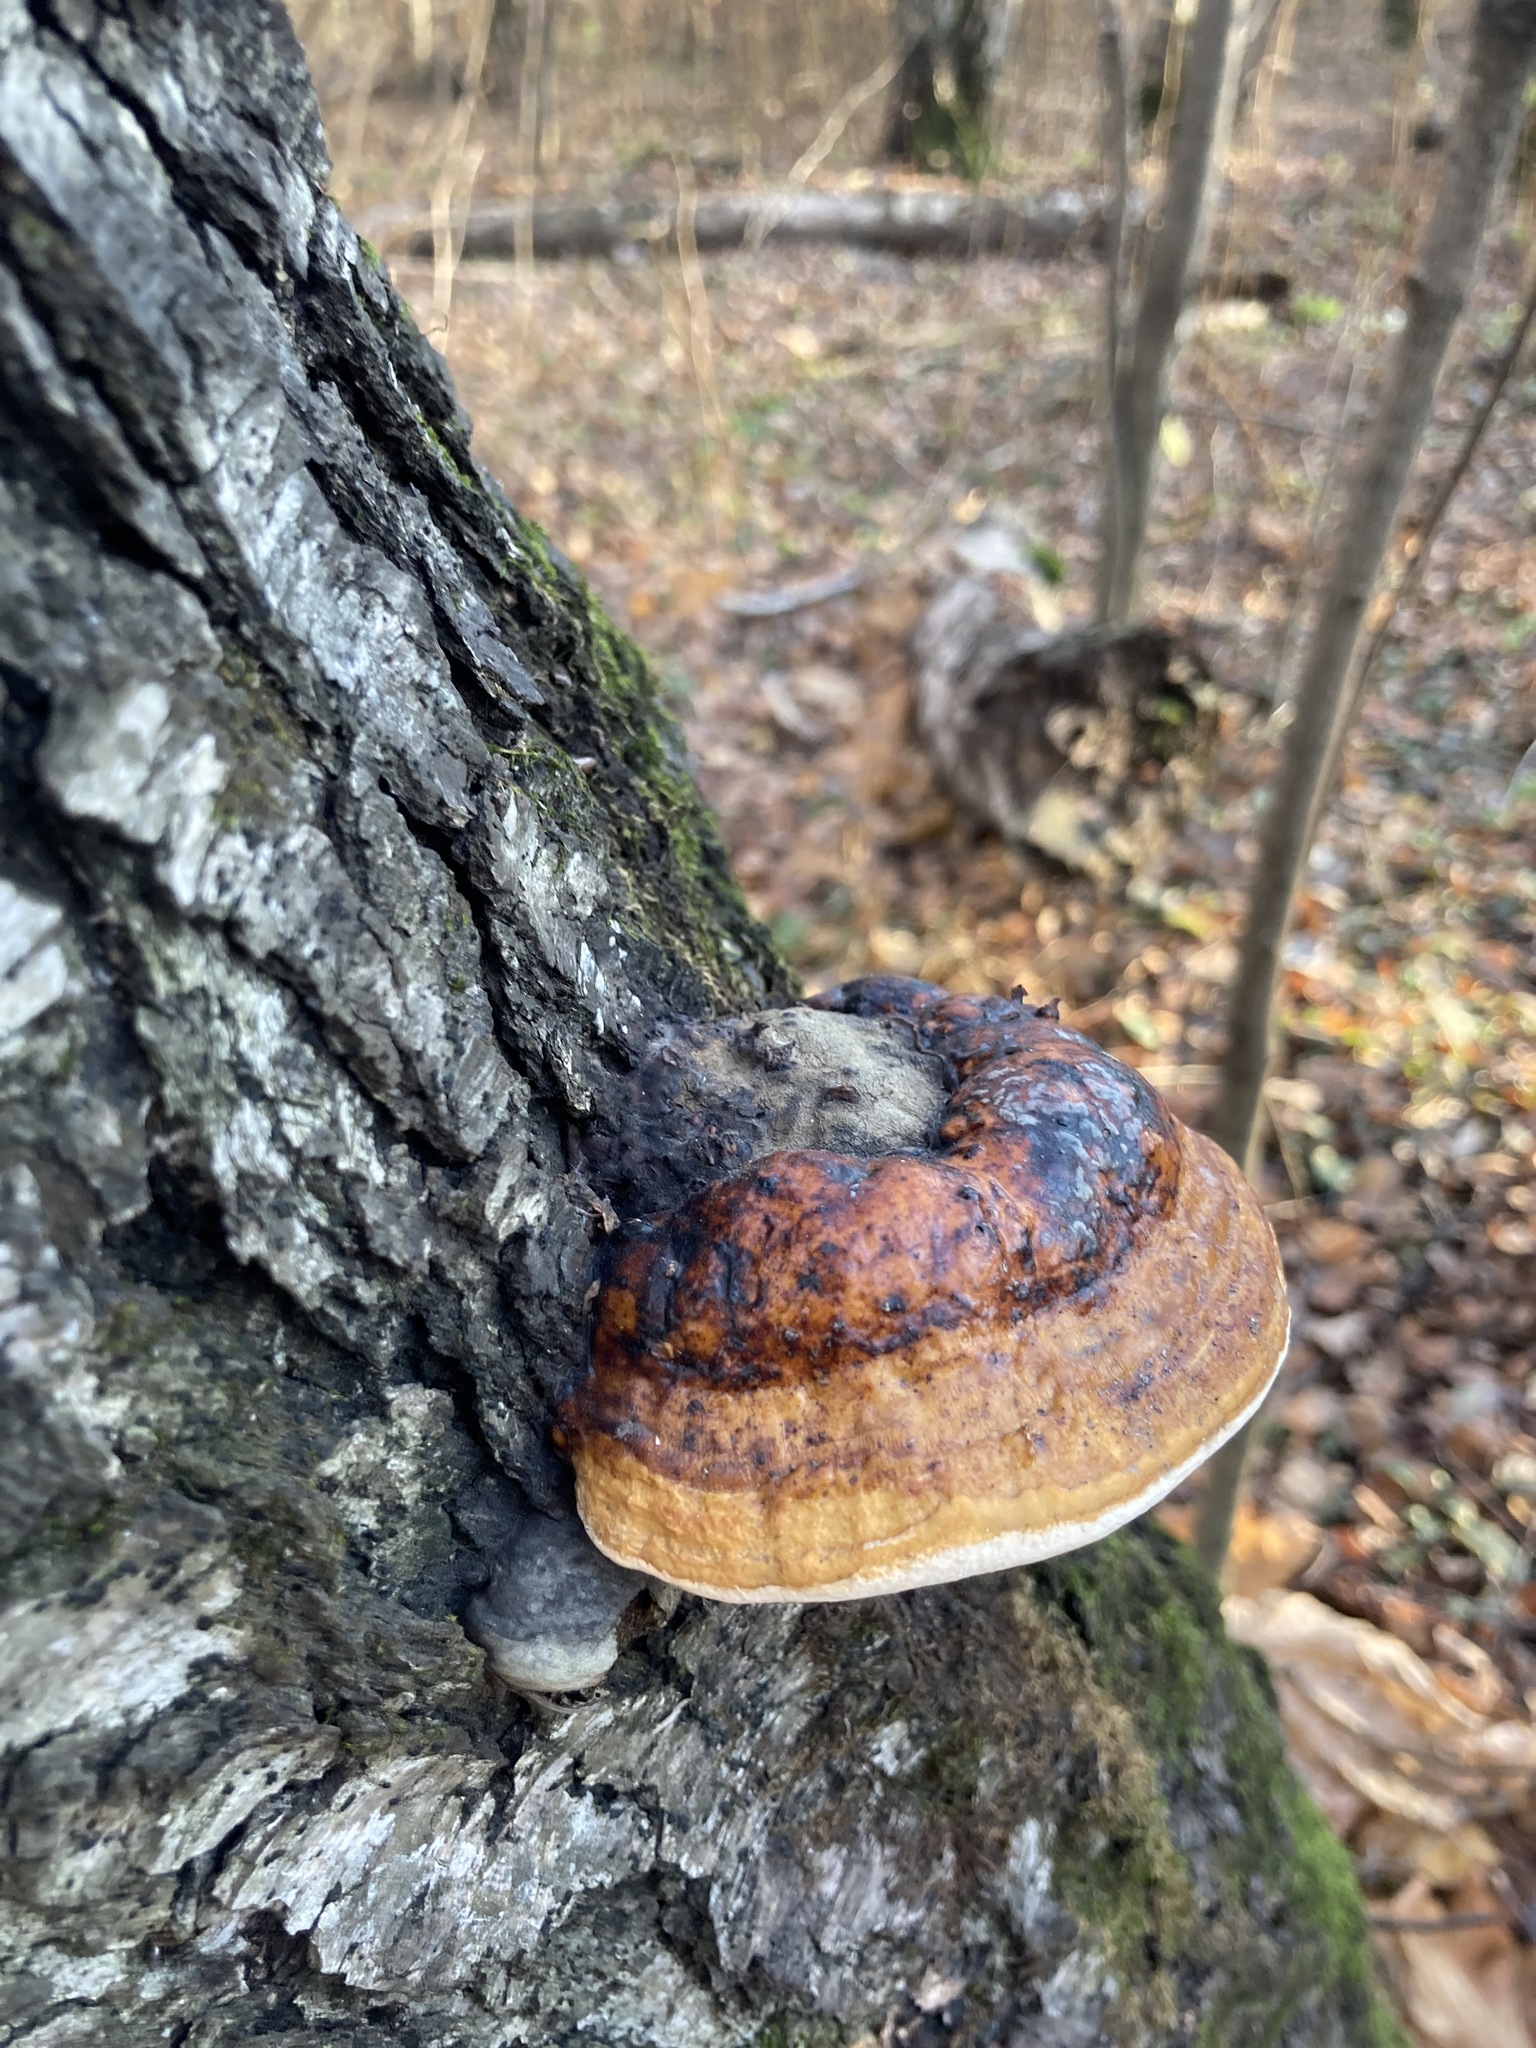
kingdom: Fungi
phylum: Basidiomycota
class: Agaricomycetes
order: Polyporales
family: Fomitopsidaceae
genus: Fomitopsis
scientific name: Fomitopsis pinicola
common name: Red-belted bracket
